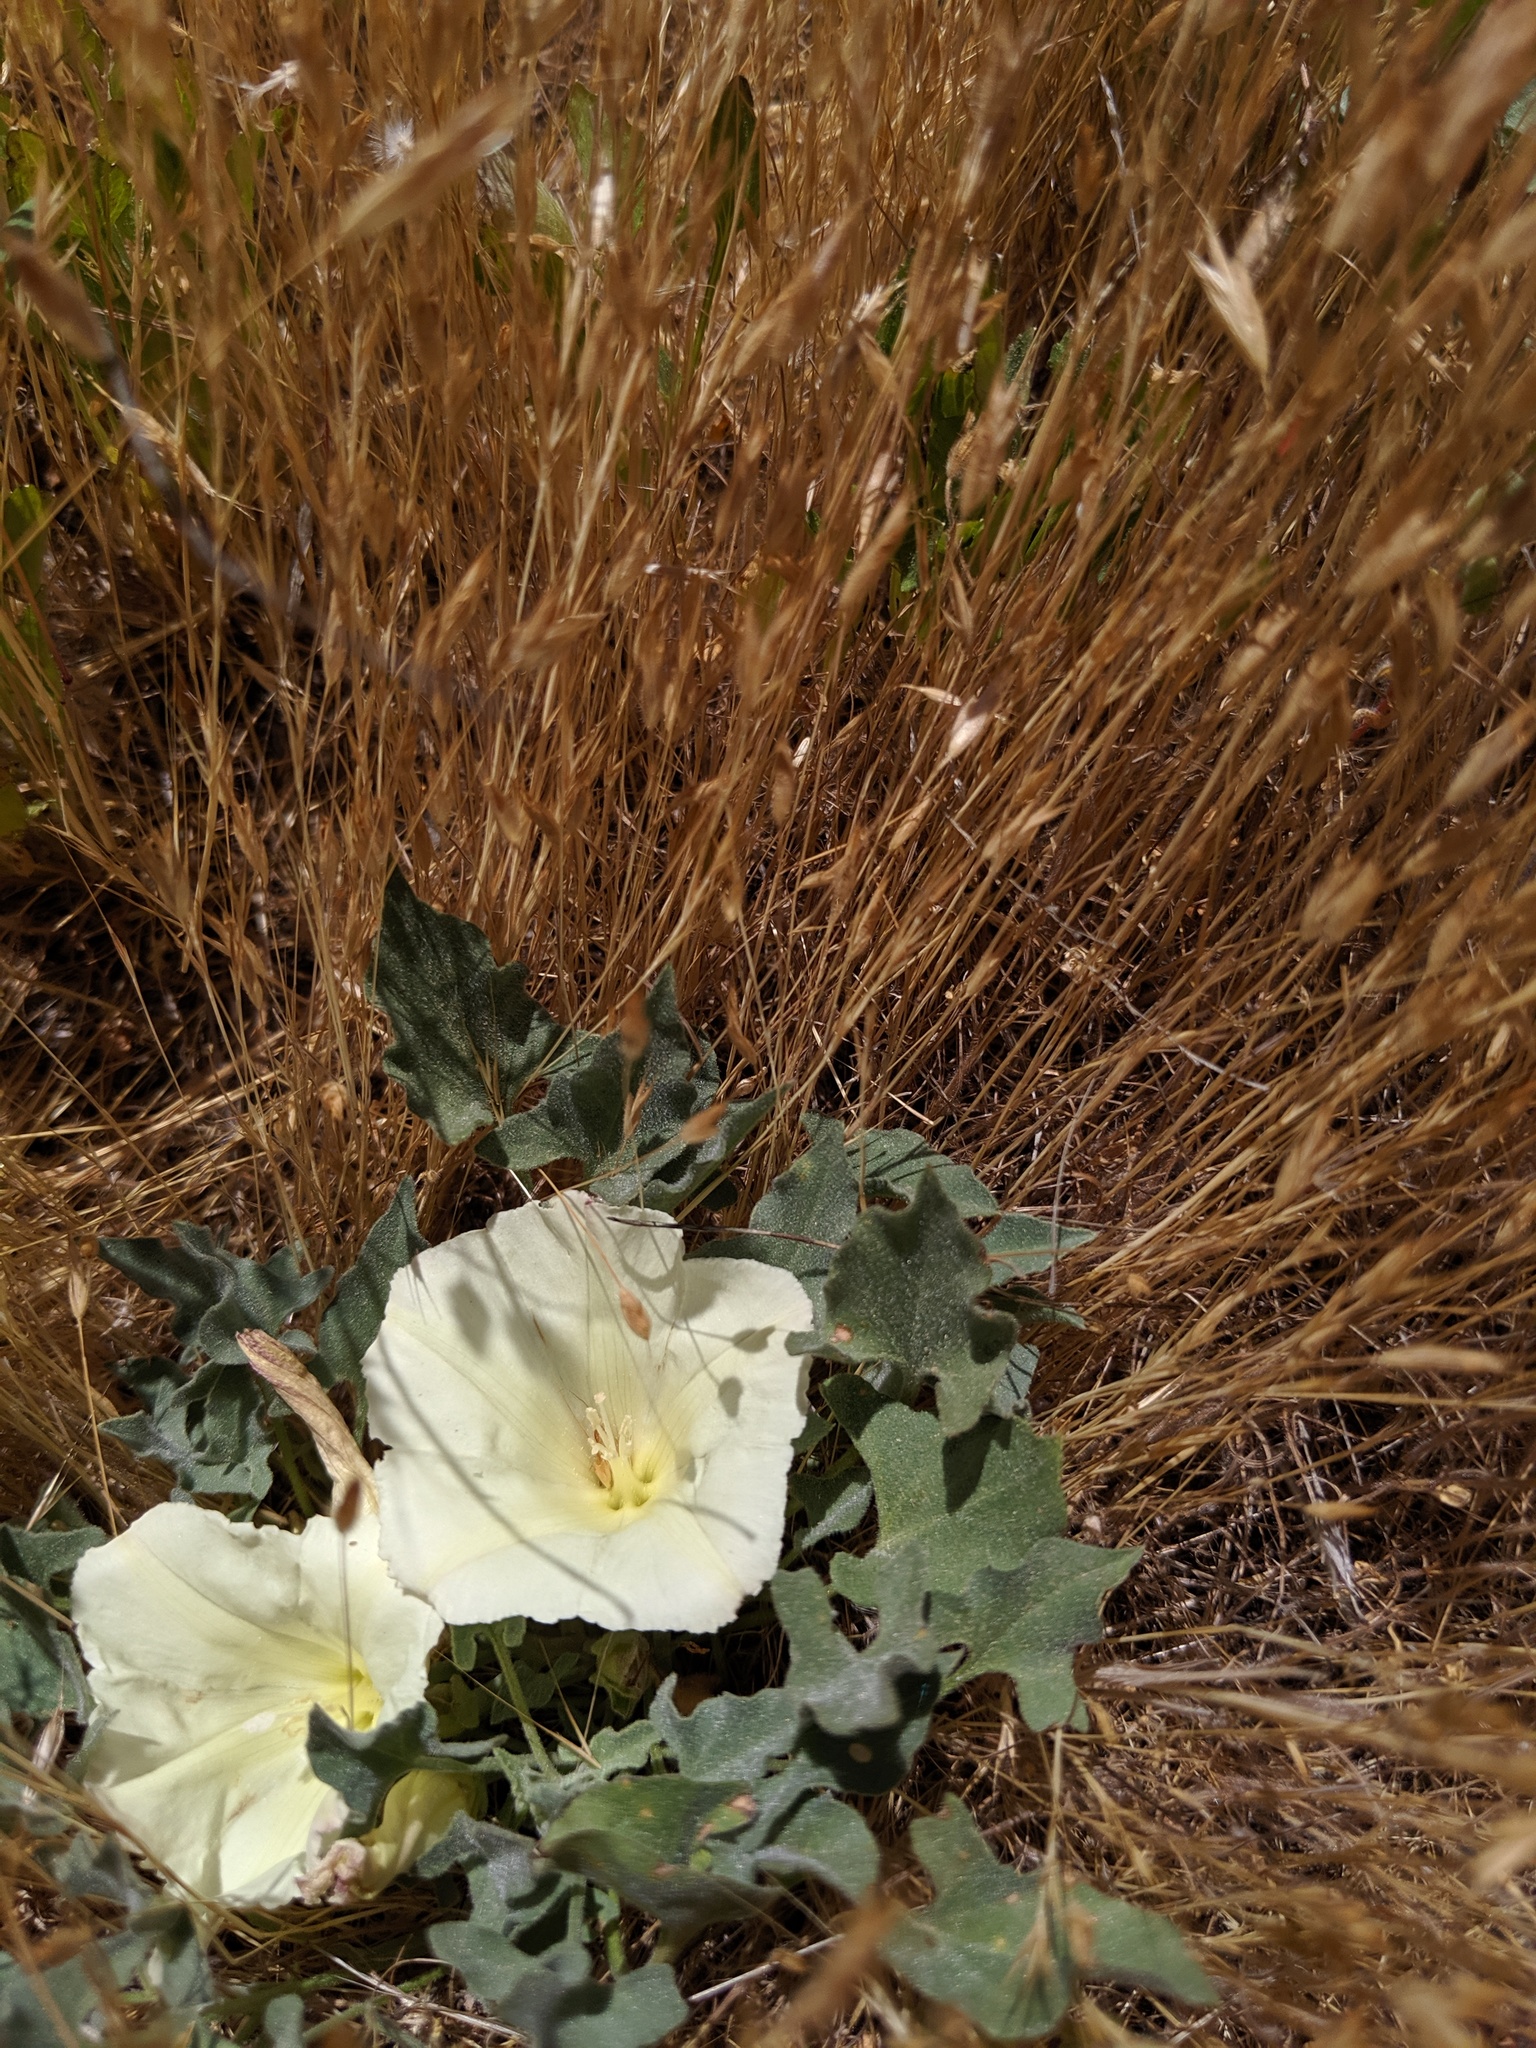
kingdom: Plantae
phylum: Tracheophyta
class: Magnoliopsida
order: Solanales
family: Convolvulaceae
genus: Calystegia
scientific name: Calystegia collina
